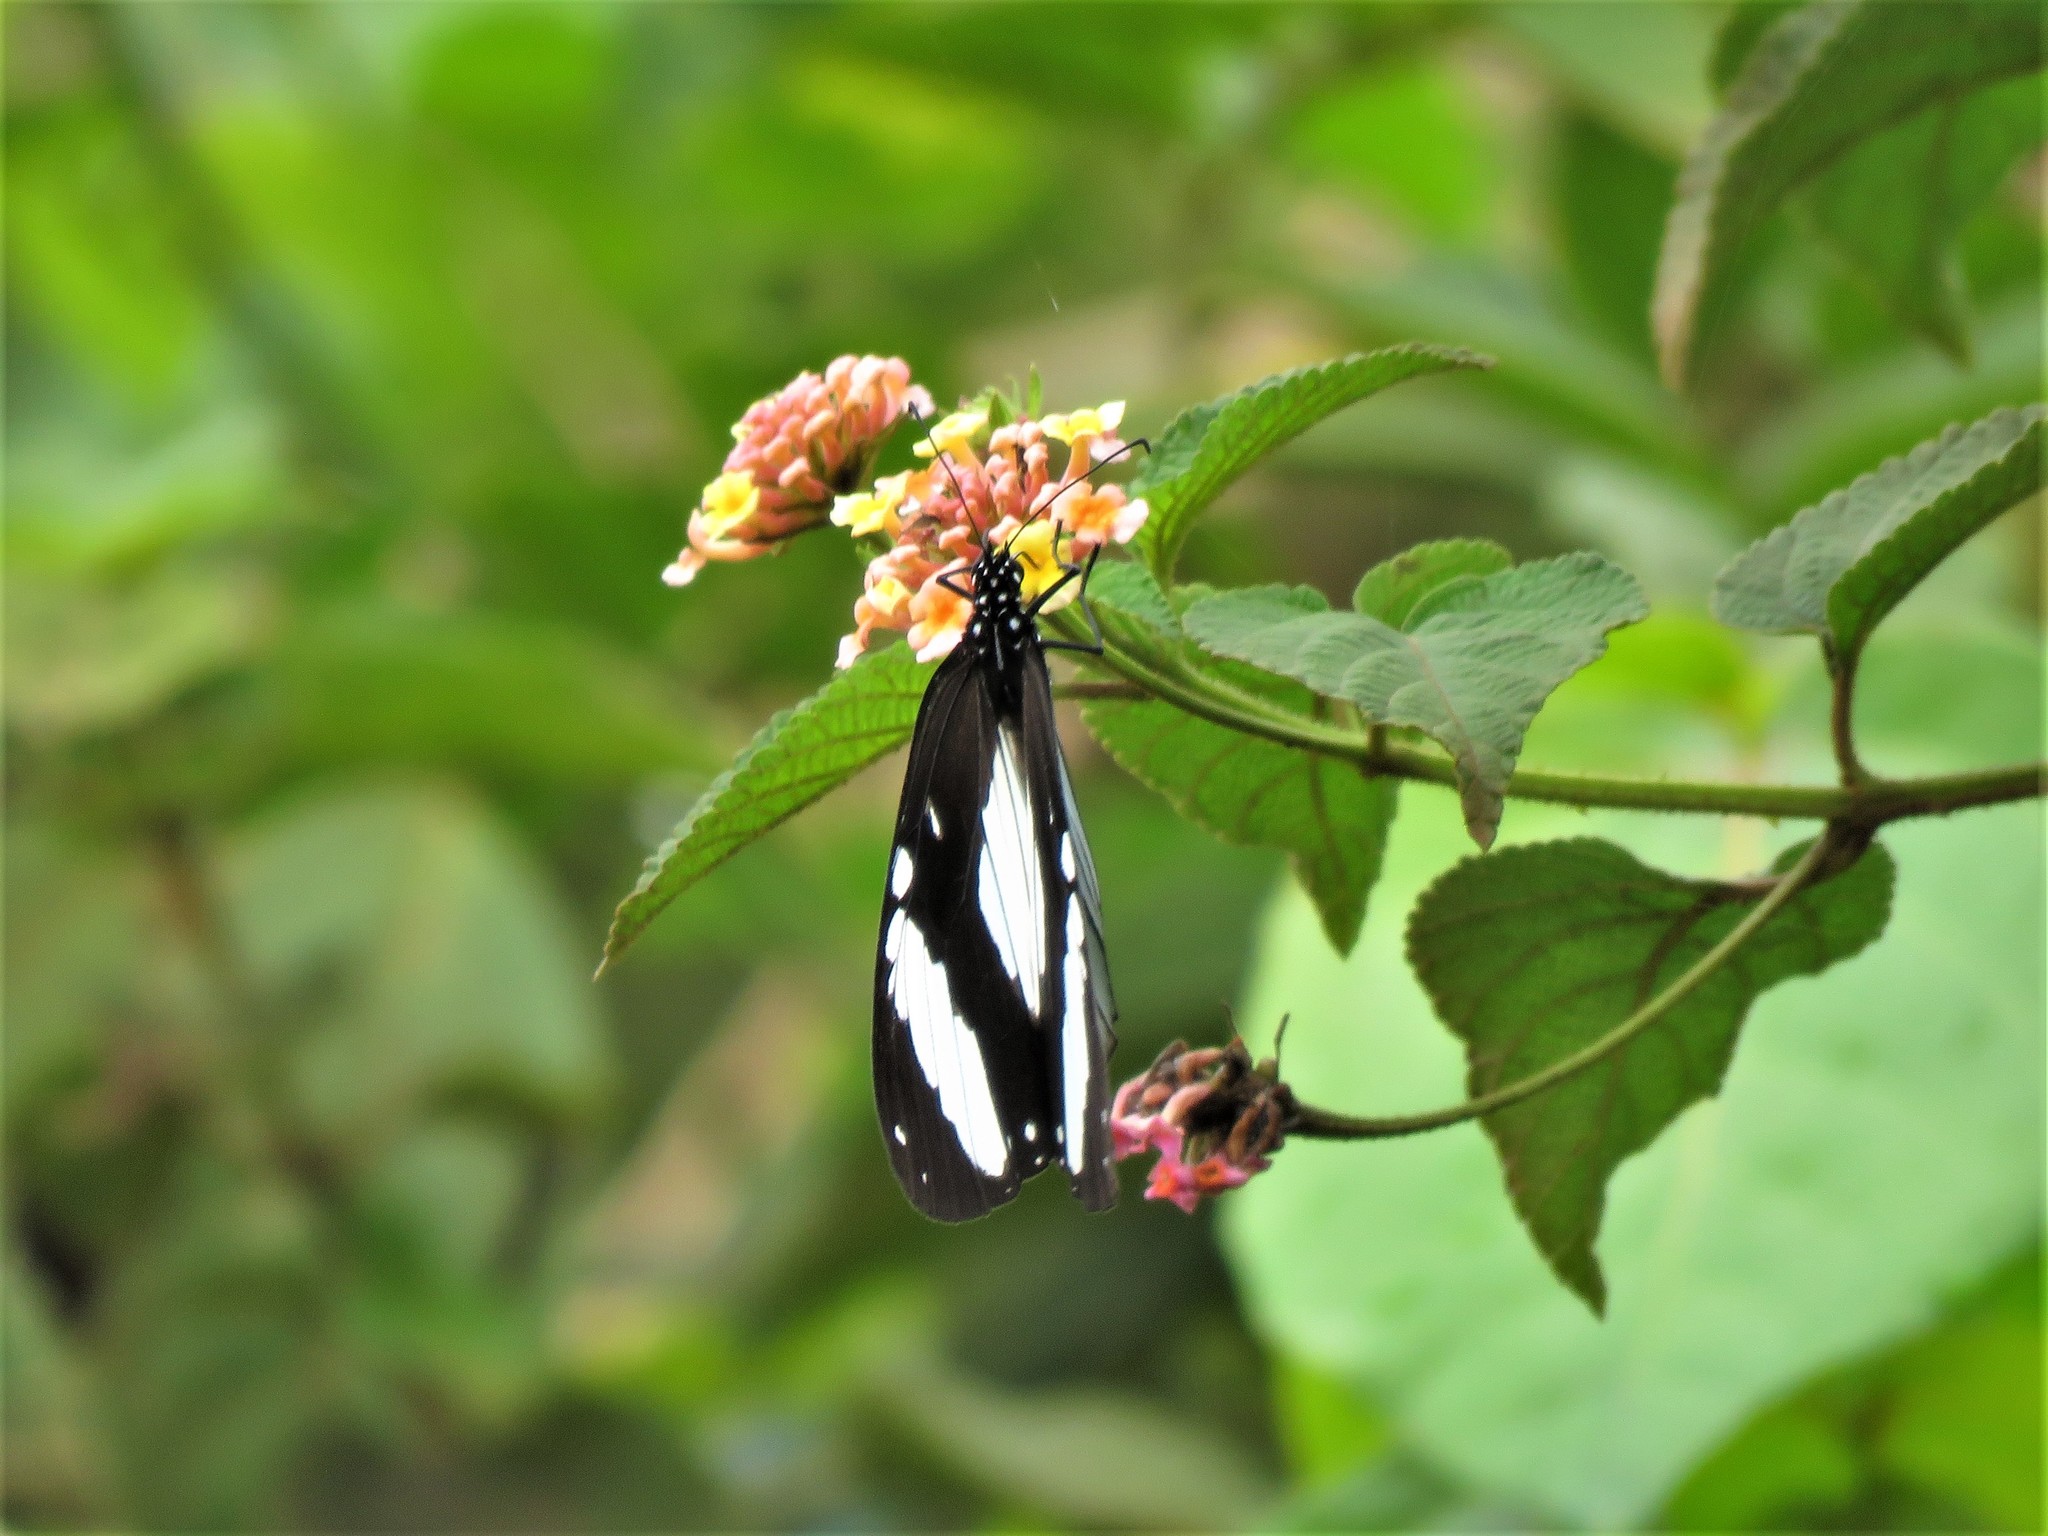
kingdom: Animalia
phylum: Arthropoda
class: Insecta
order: Lepidoptera
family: Nymphalidae
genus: Amauris
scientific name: Amauris niavius
